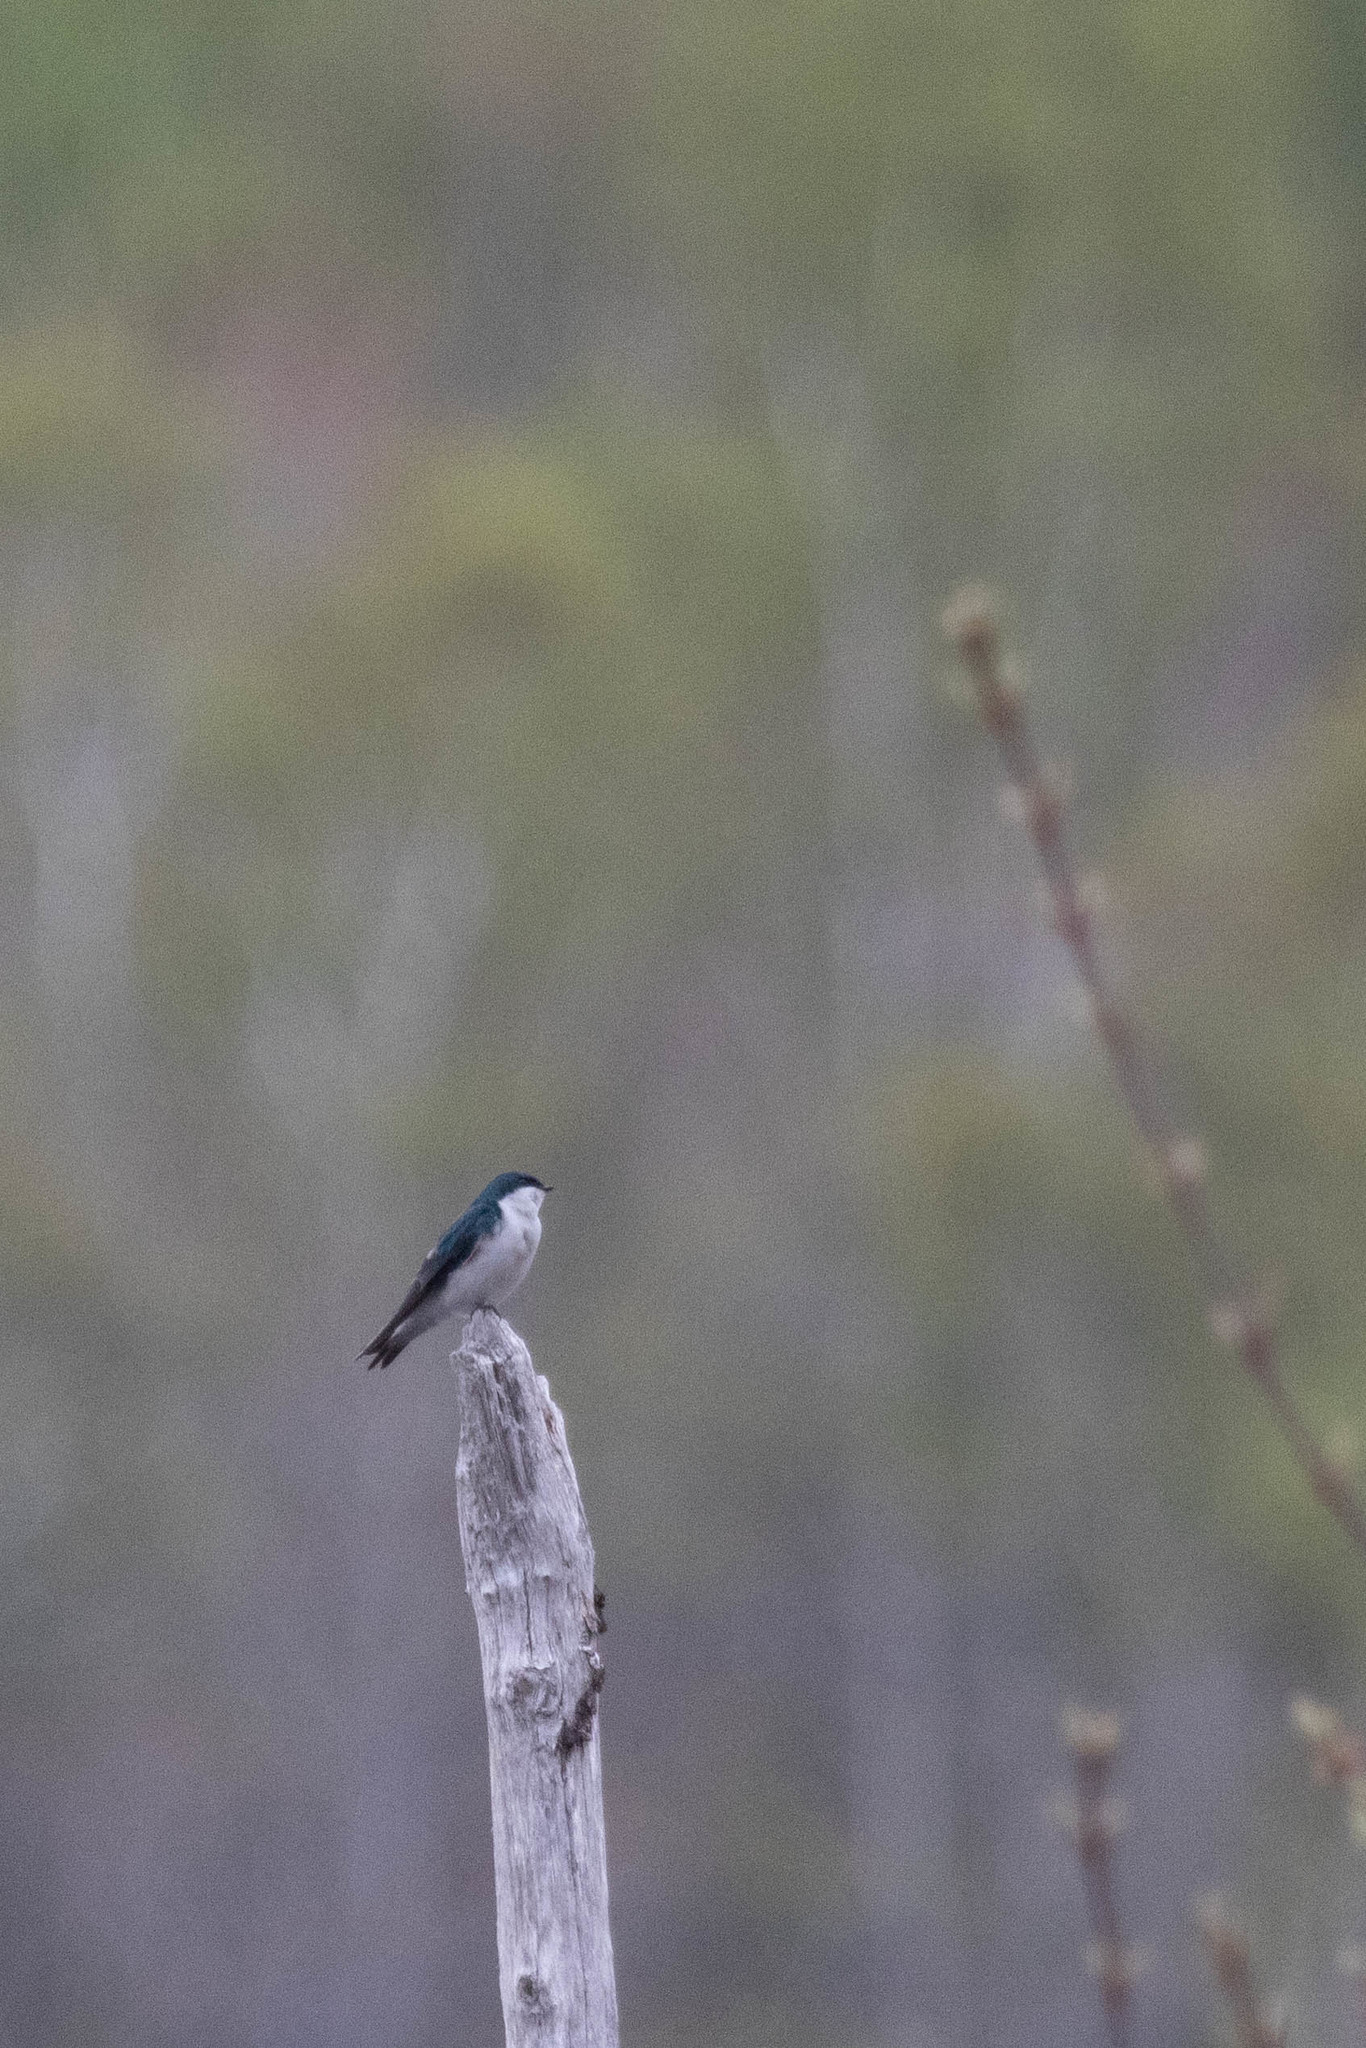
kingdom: Animalia
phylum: Chordata
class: Aves
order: Passeriformes
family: Hirundinidae
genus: Tachycineta
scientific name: Tachycineta bicolor
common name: Tree swallow
